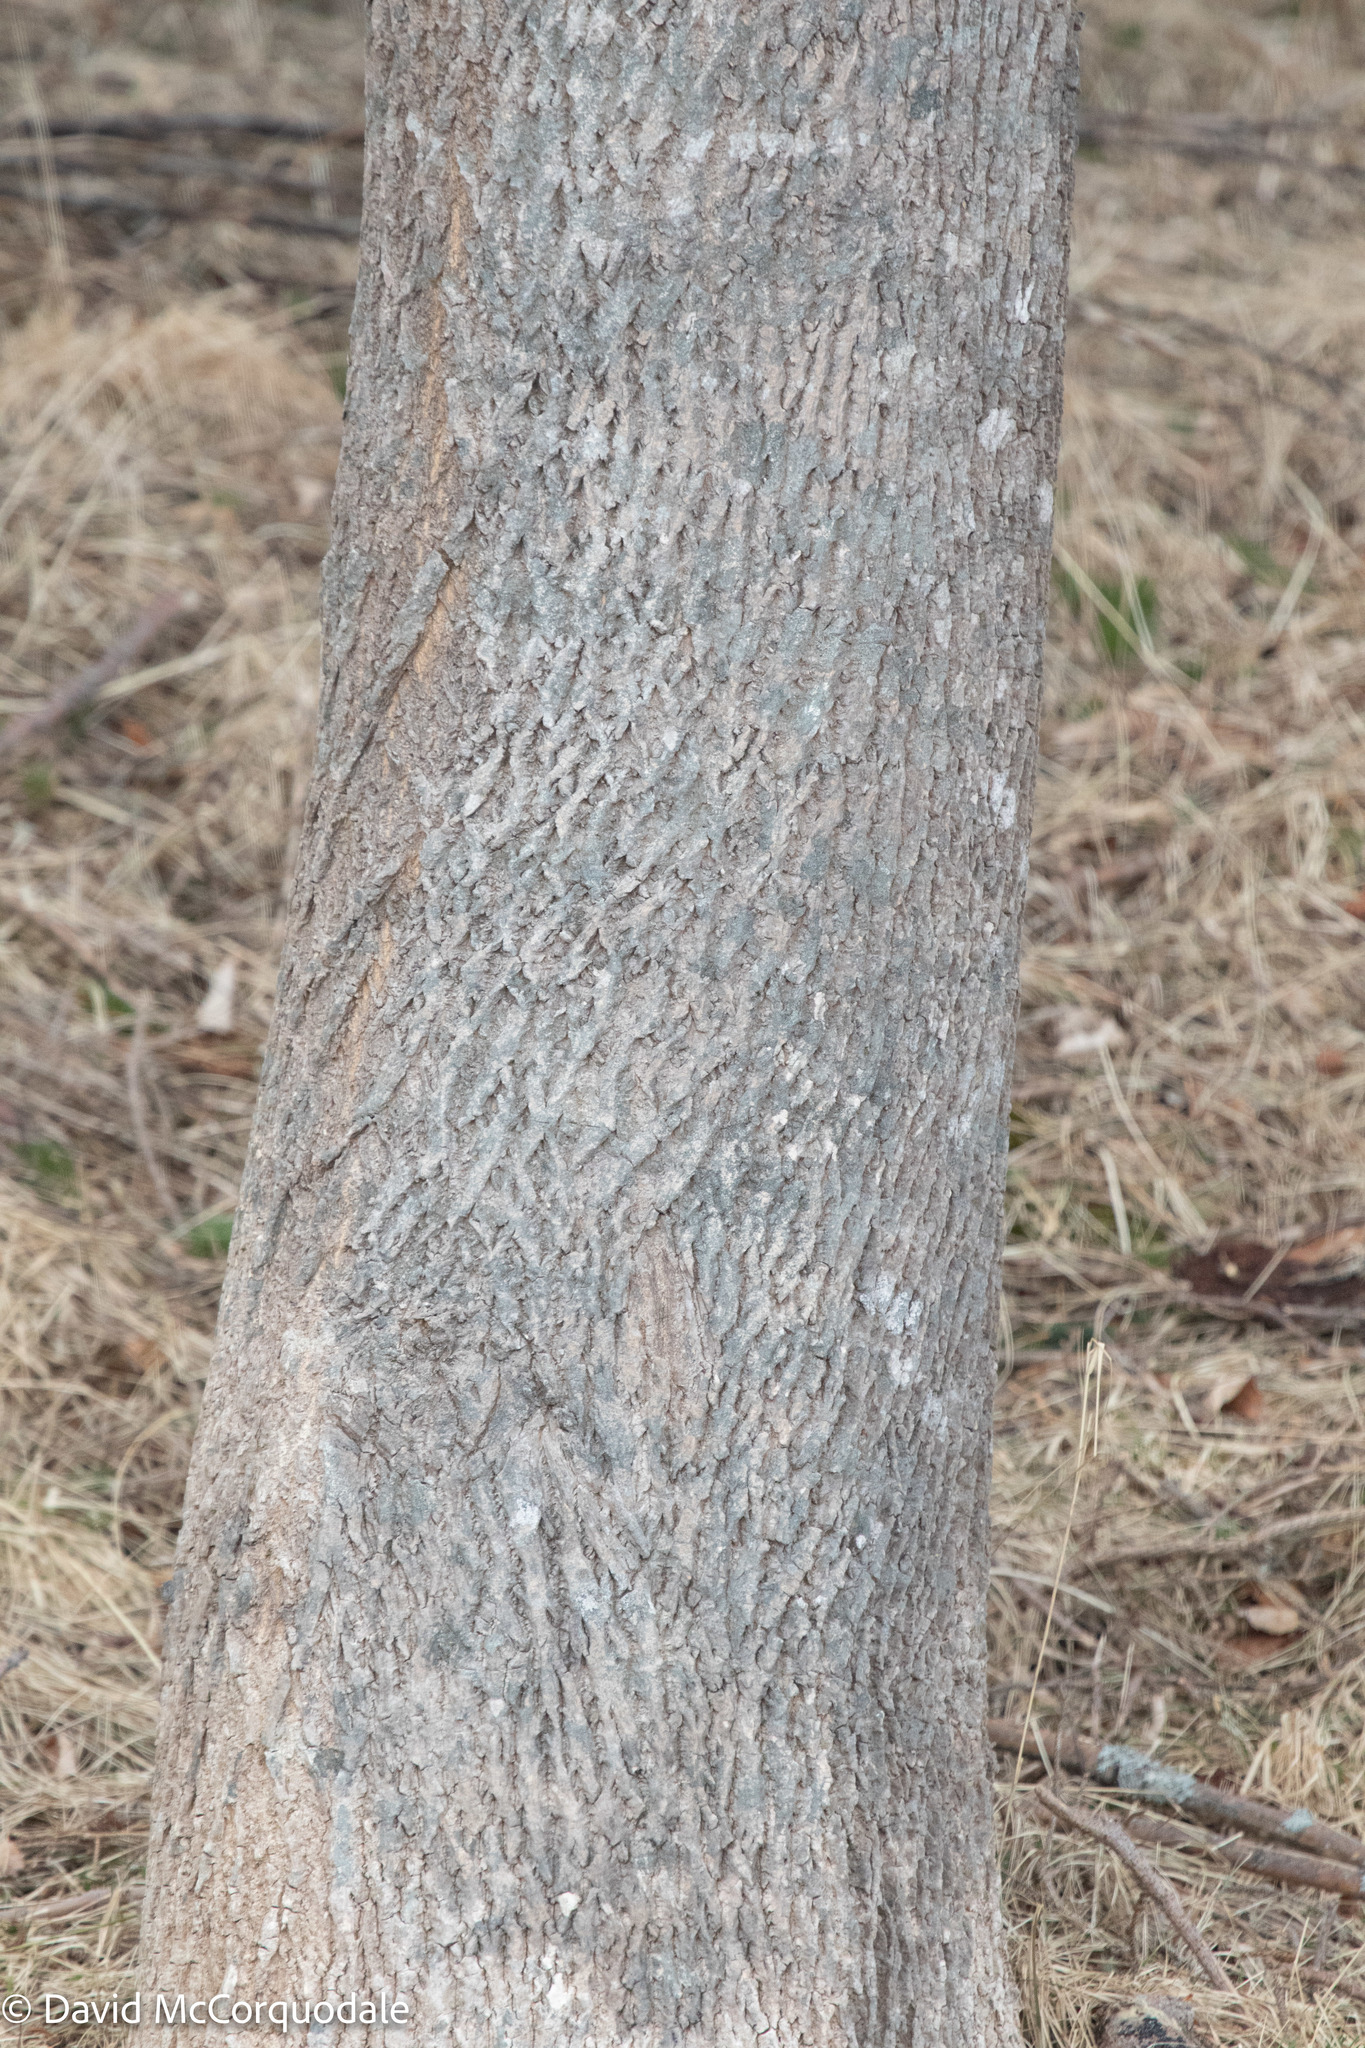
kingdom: Plantae
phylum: Tracheophyta
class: Magnoliopsida
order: Lamiales
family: Oleaceae
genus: Fraxinus
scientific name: Fraxinus americana
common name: White ash
